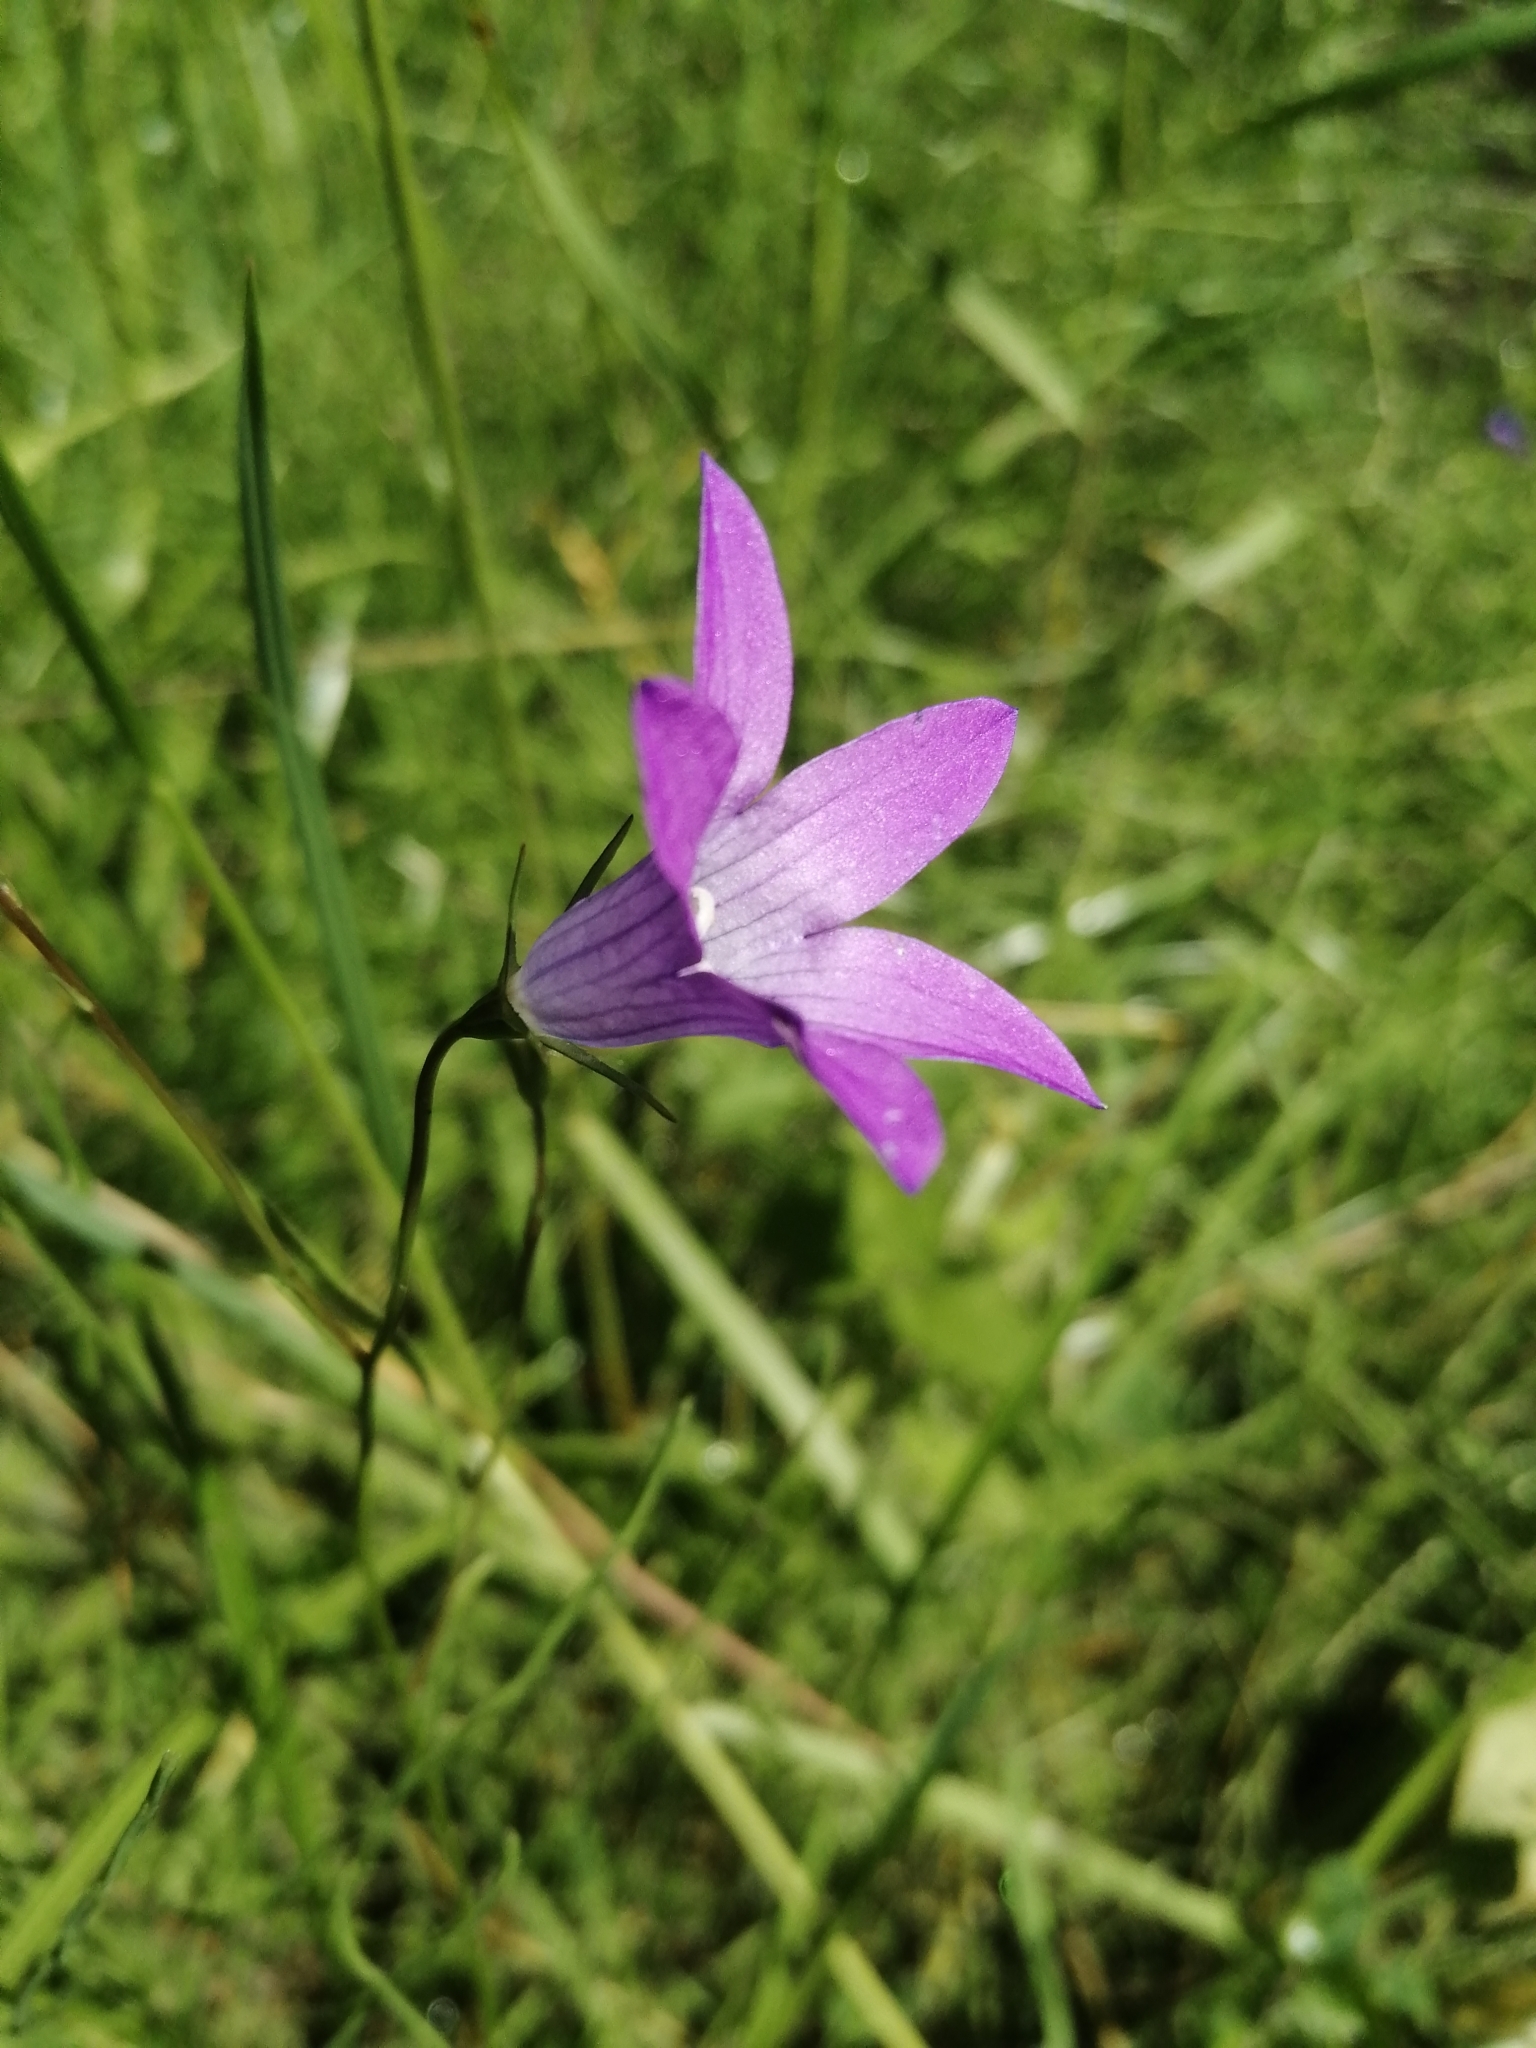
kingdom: Plantae
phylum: Tracheophyta
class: Magnoliopsida
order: Asterales
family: Campanulaceae
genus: Campanula
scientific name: Campanula patula
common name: Spreading bellflower
